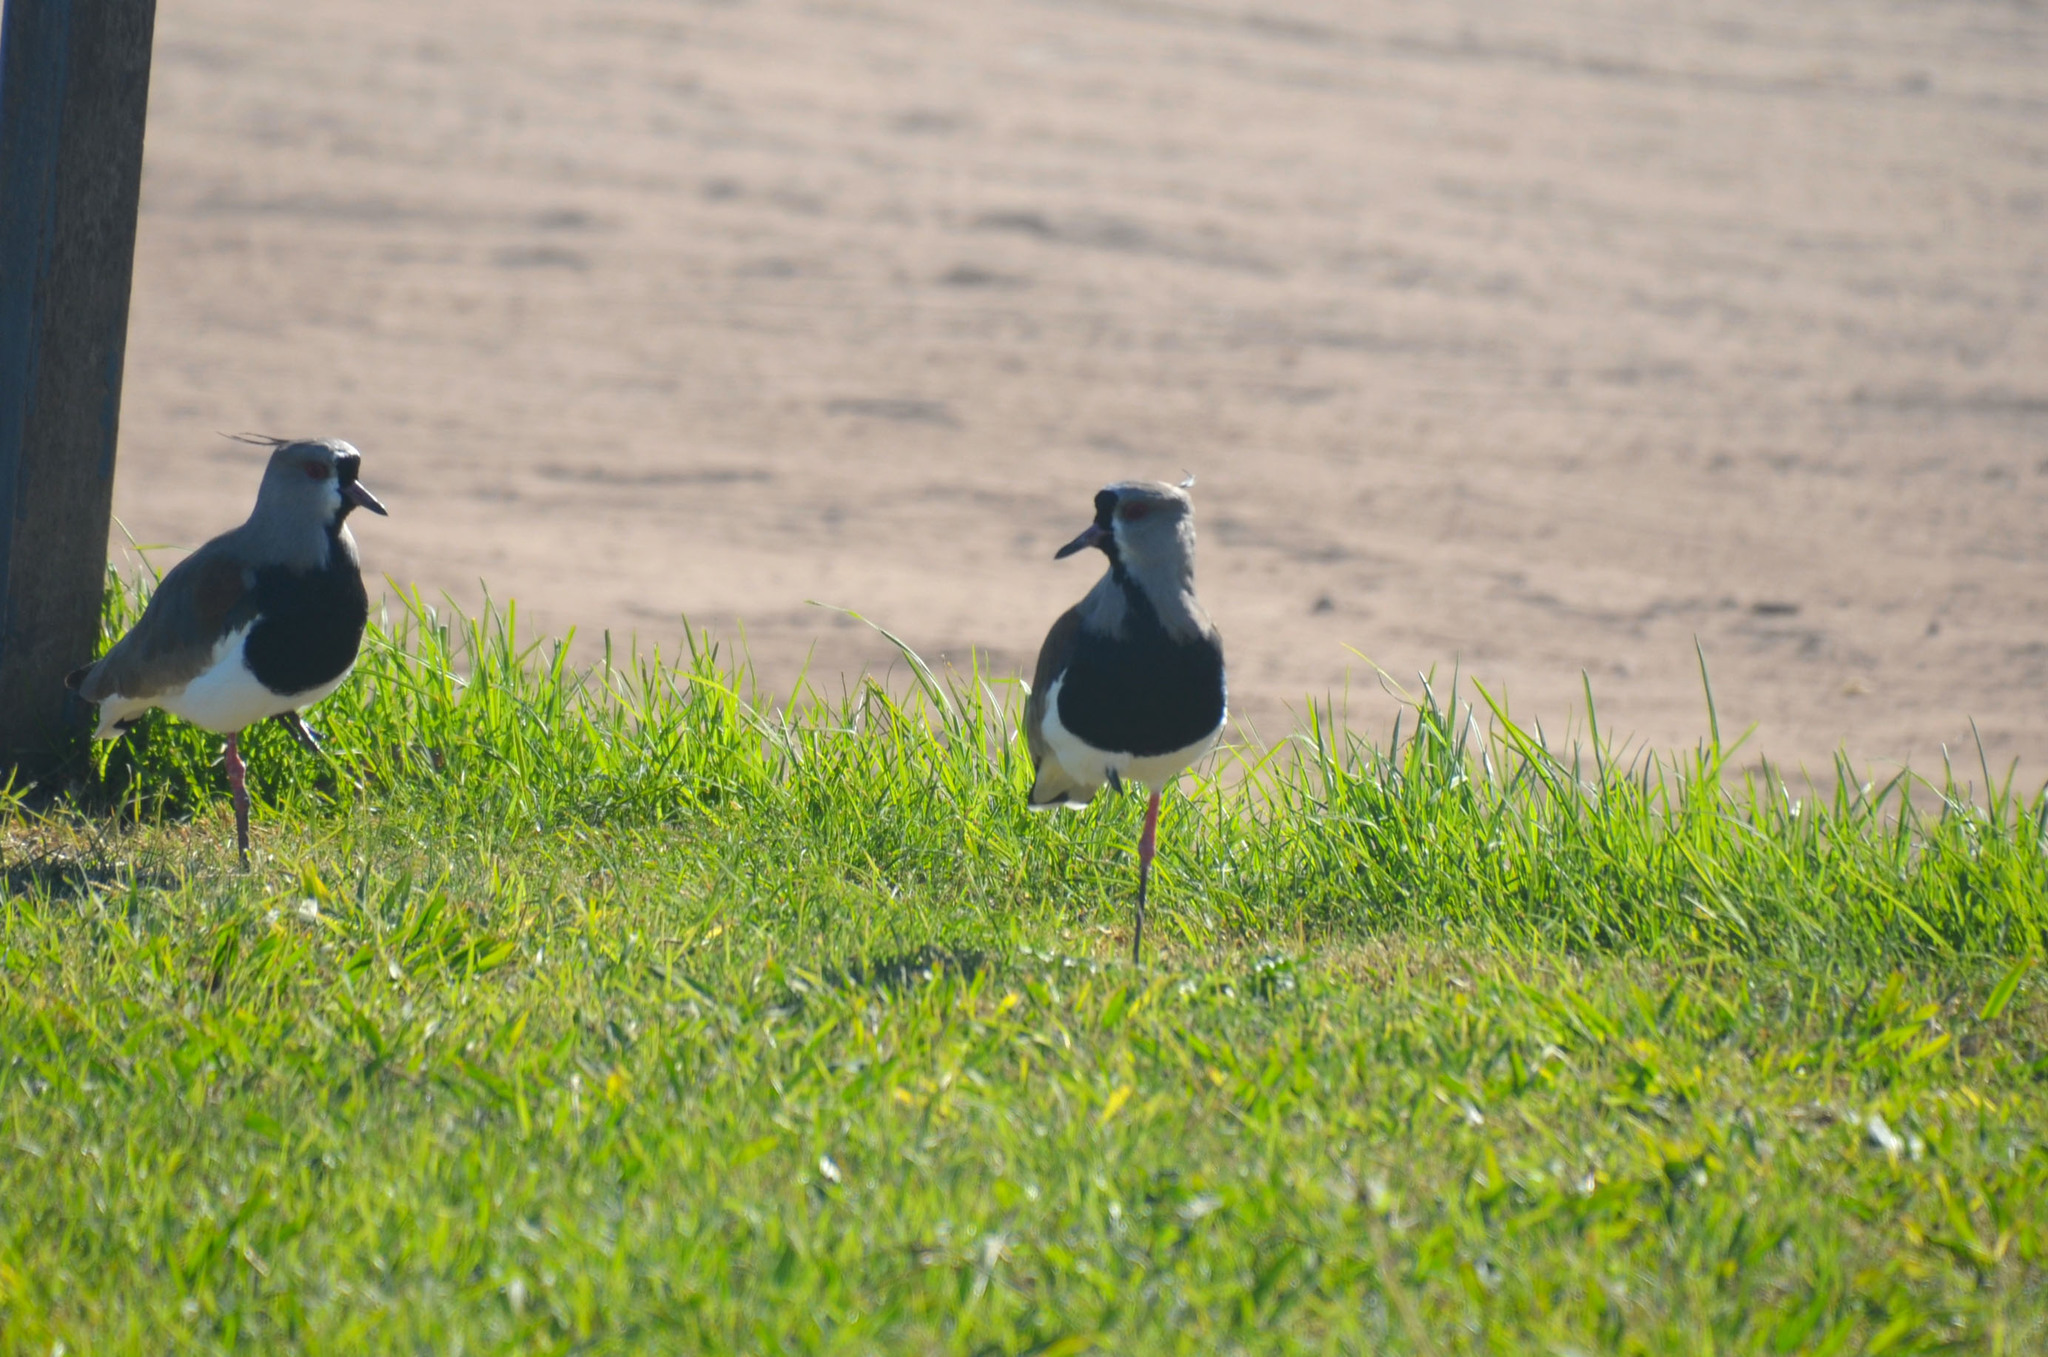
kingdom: Animalia
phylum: Chordata
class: Aves
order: Charadriiformes
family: Charadriidae
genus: Vanellus
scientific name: Vanellus chilensis
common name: Southern lapwing
